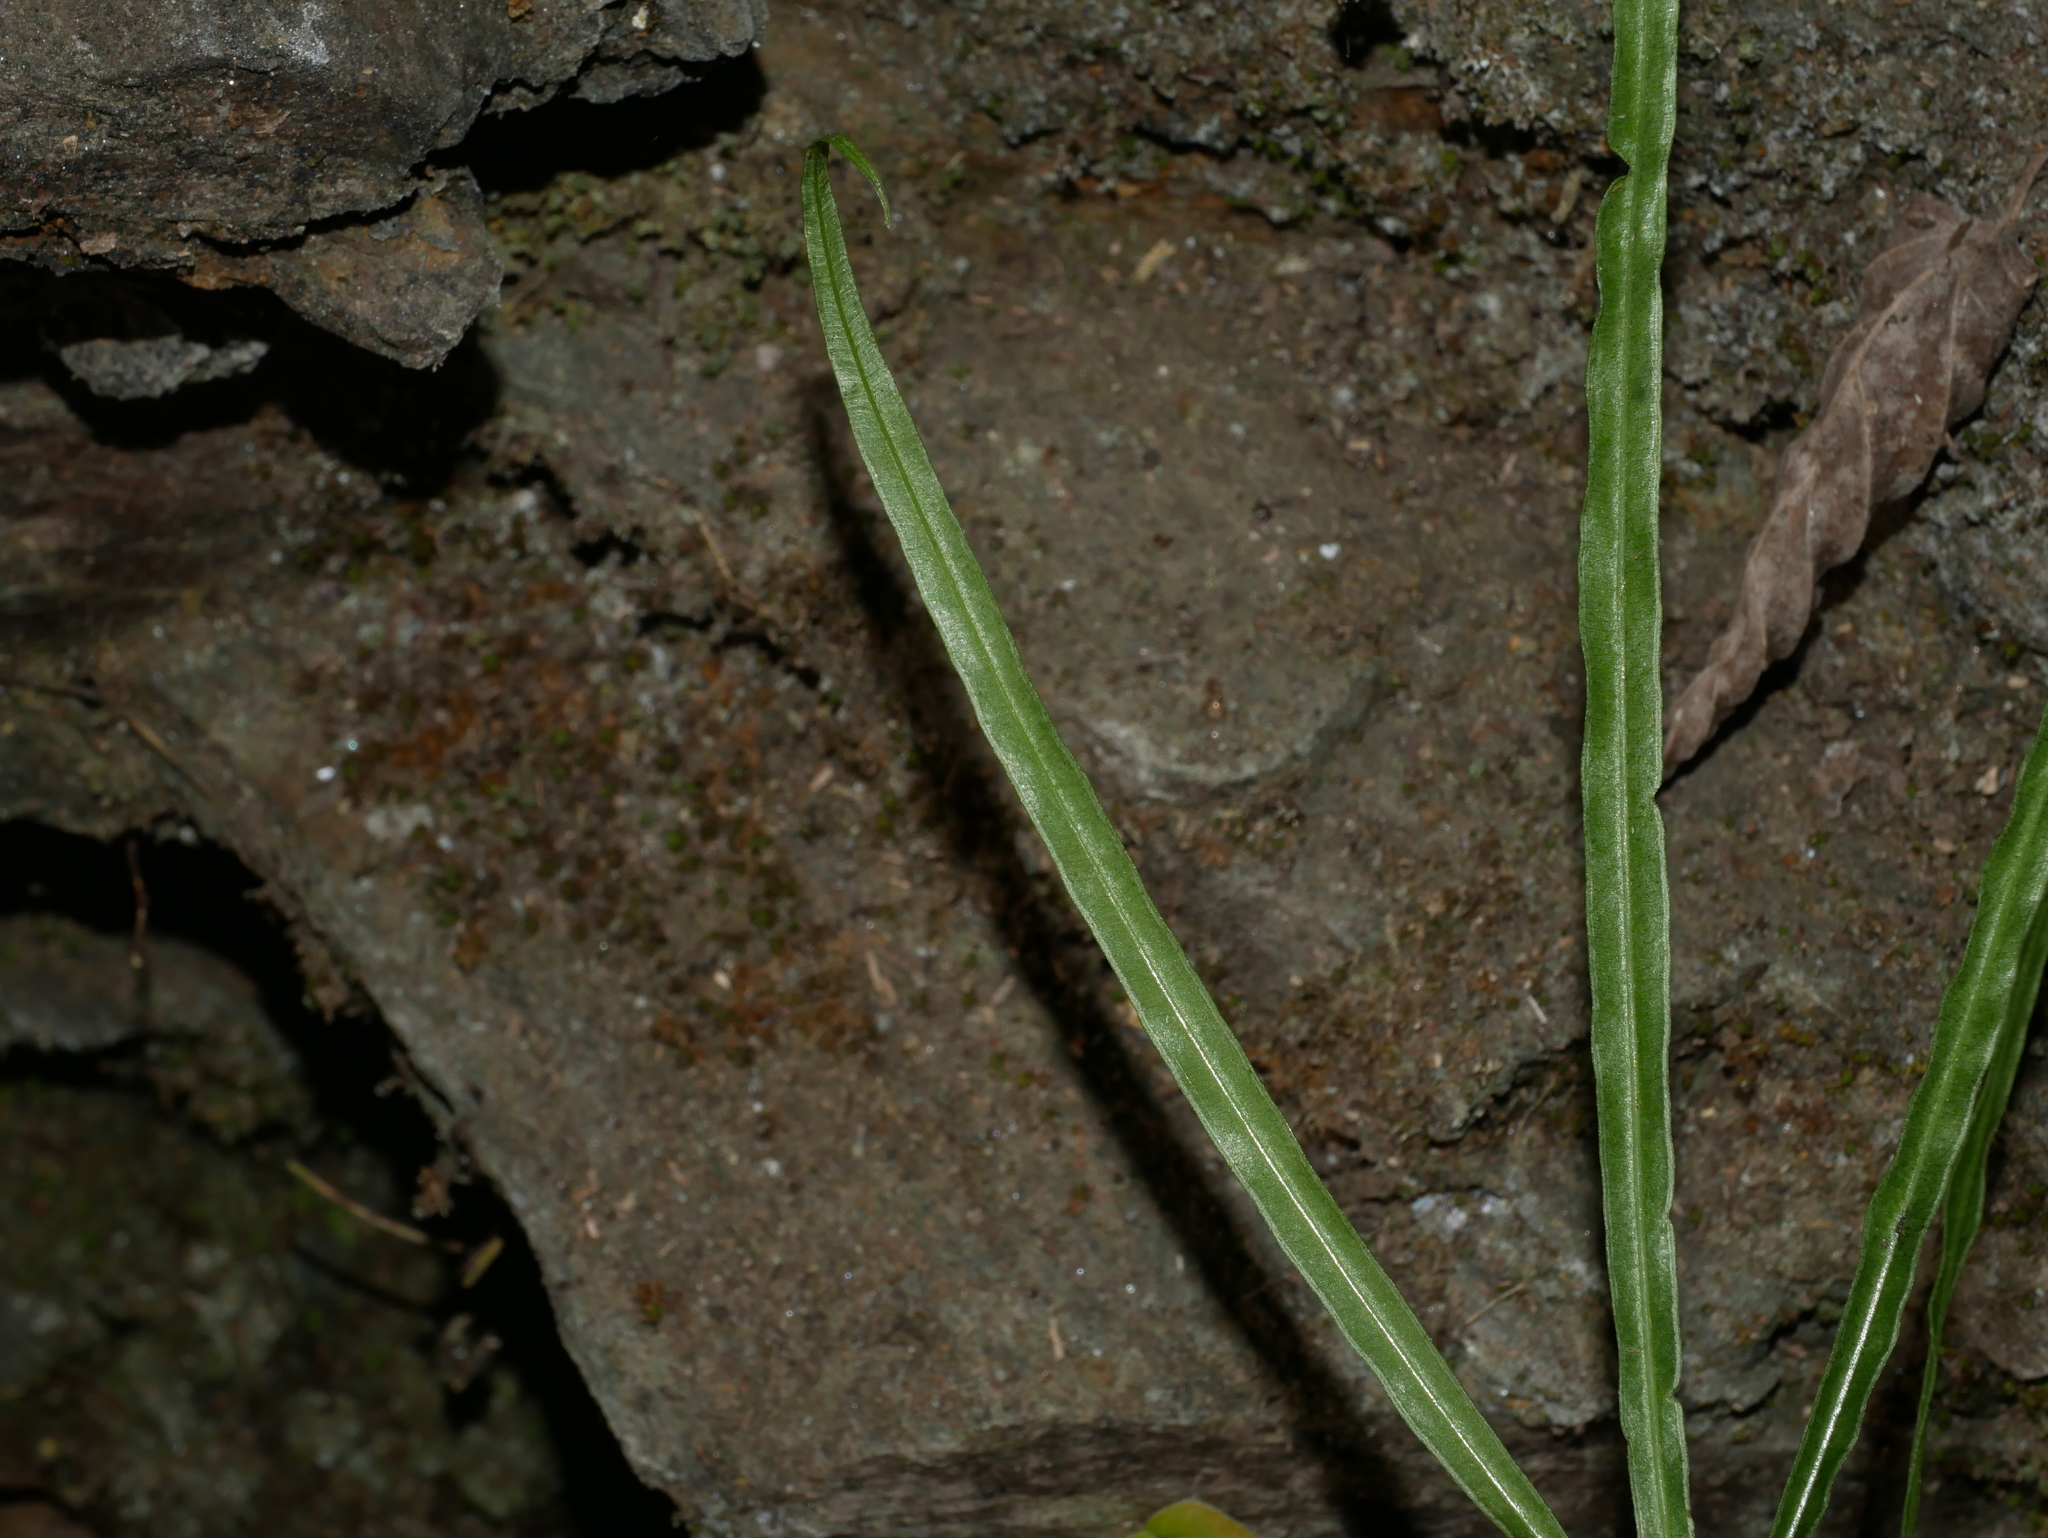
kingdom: Plantae
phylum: Tracheophyta
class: Polypodiopsida
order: Polypodiales
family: Pteridaceae
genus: Pteris
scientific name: Pteris kidoi
